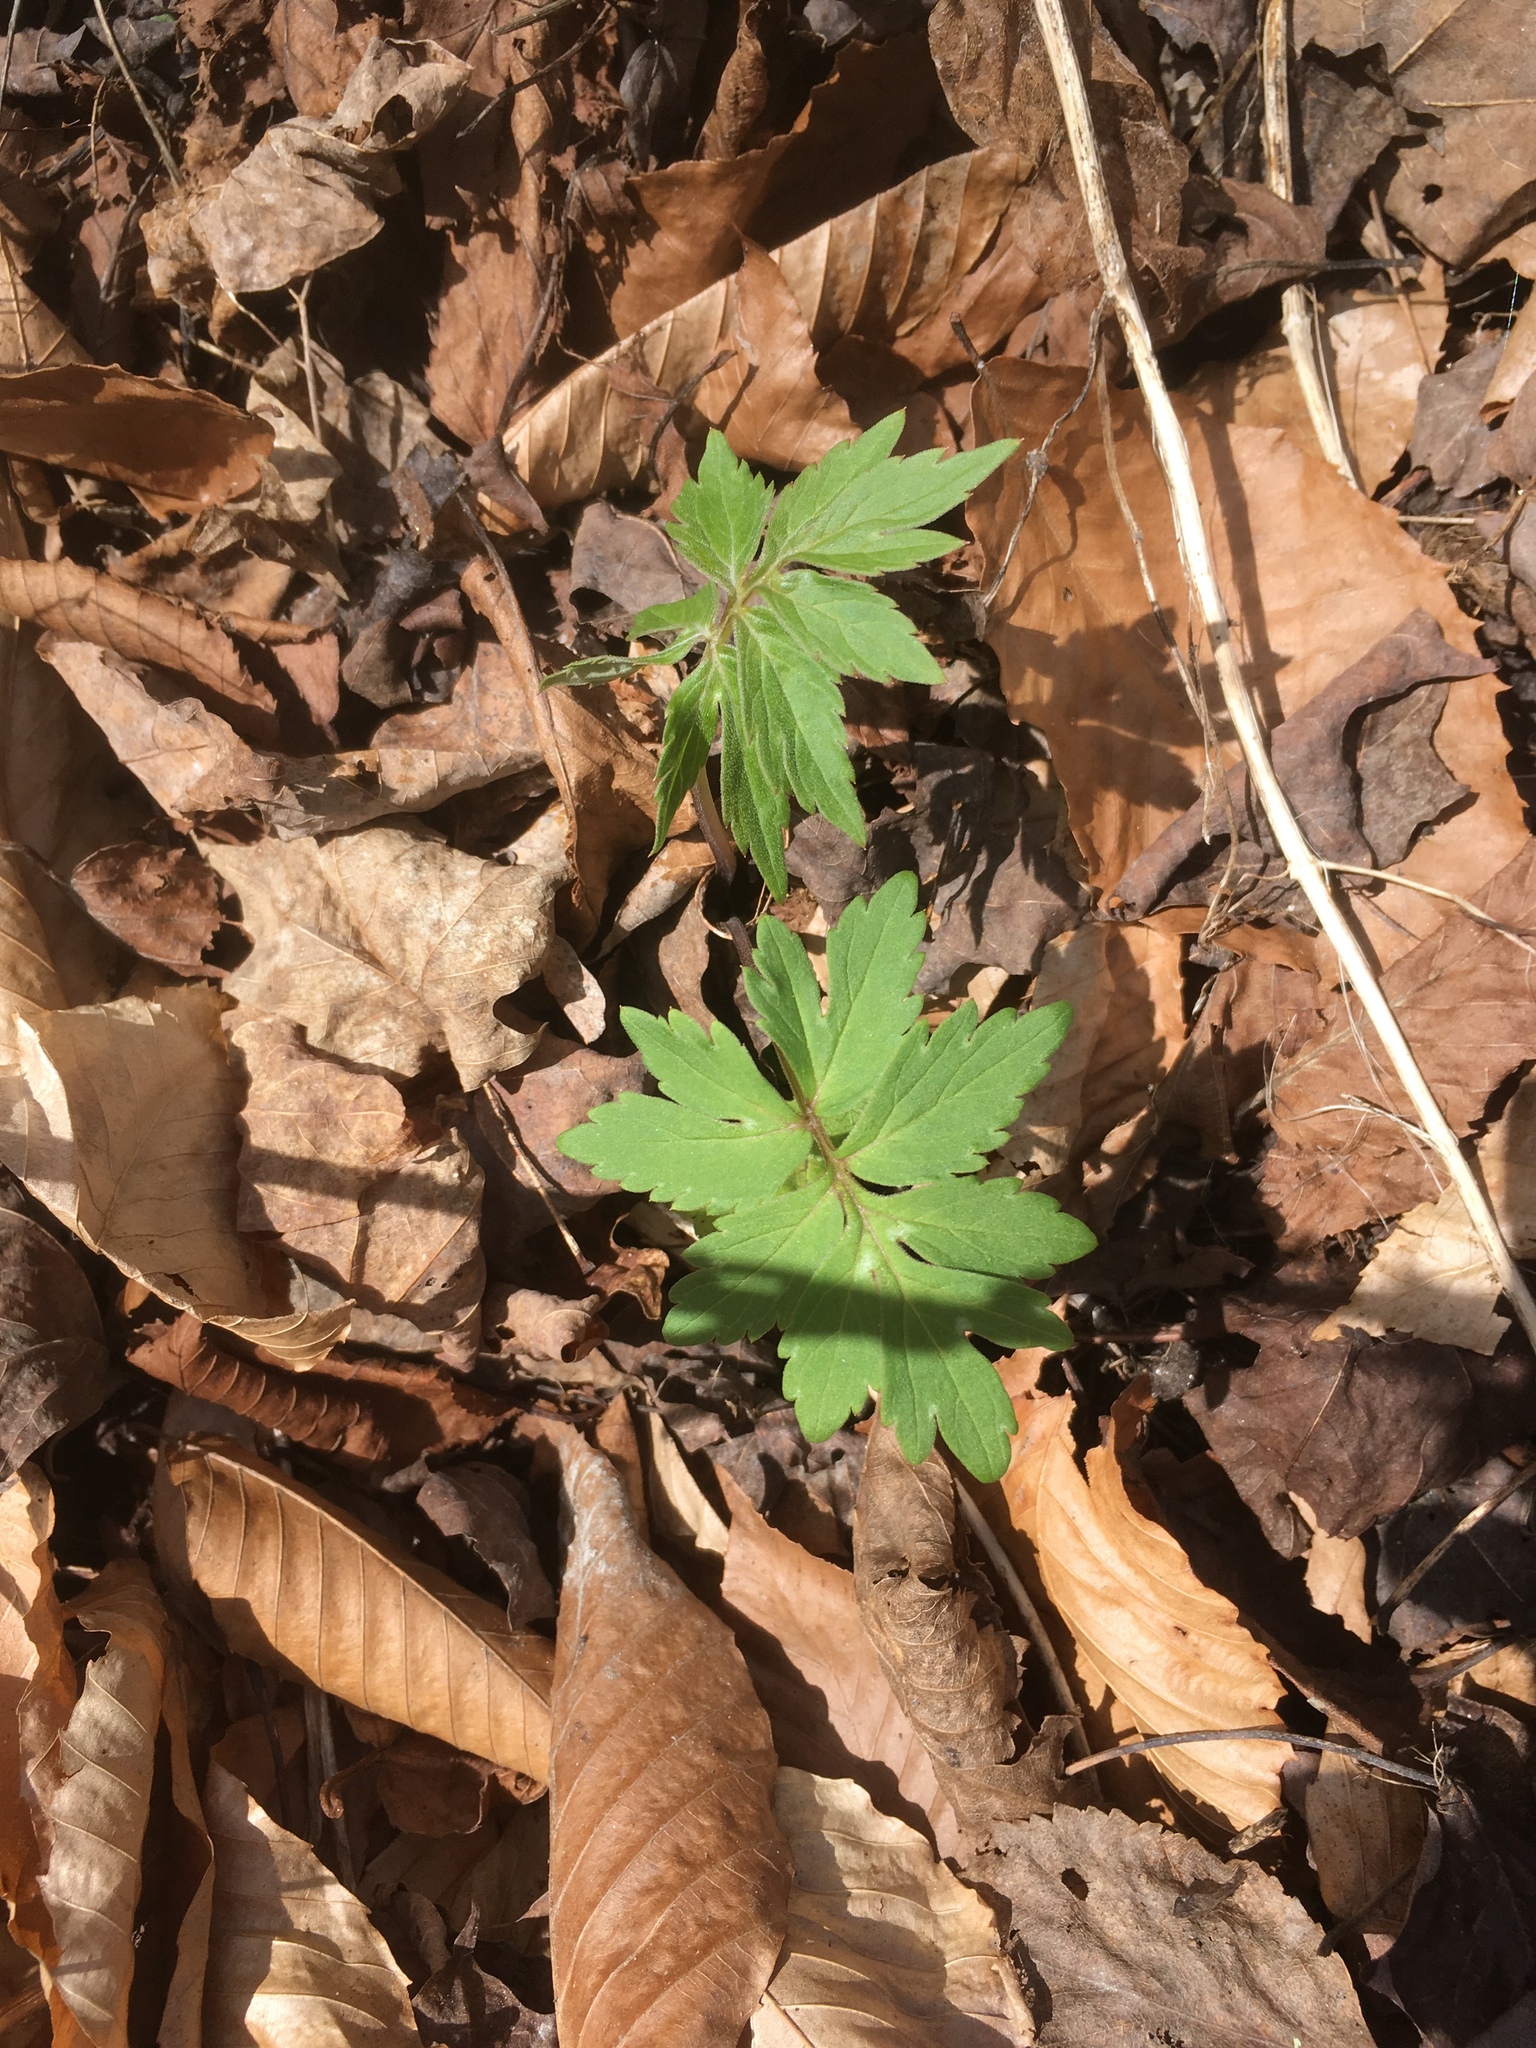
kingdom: Plantae
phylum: Tracheophyta
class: Magnoliopsida
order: Boraginales
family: Hydrophyllaceae
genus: Hydrophyllum
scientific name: Hydrophyllum virginianum
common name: Virginia waterleaf
